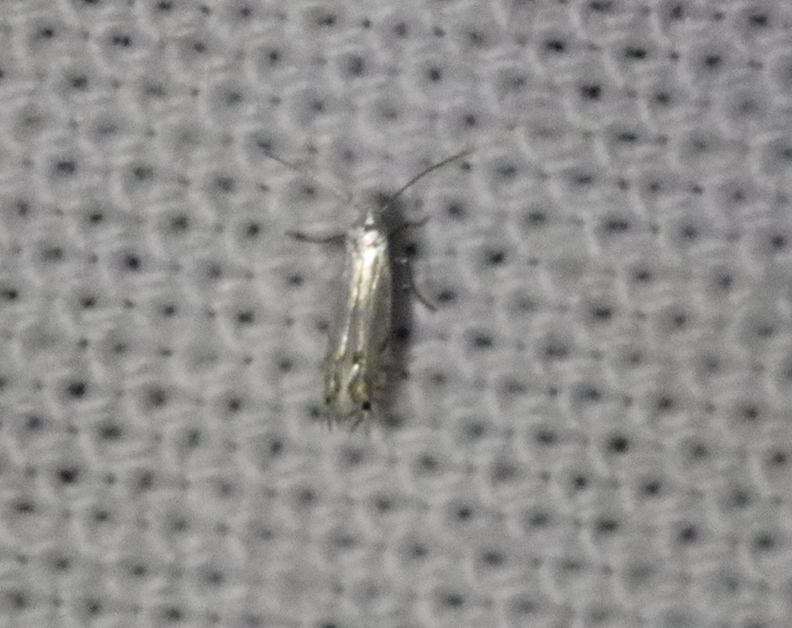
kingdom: Animalia
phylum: Arthropoda
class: Insecta
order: Lepidoptera
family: Gracillariidae
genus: Phyllocnistis
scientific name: Phyllocnistis populiella
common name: Aspen serpentine leafminer moth
